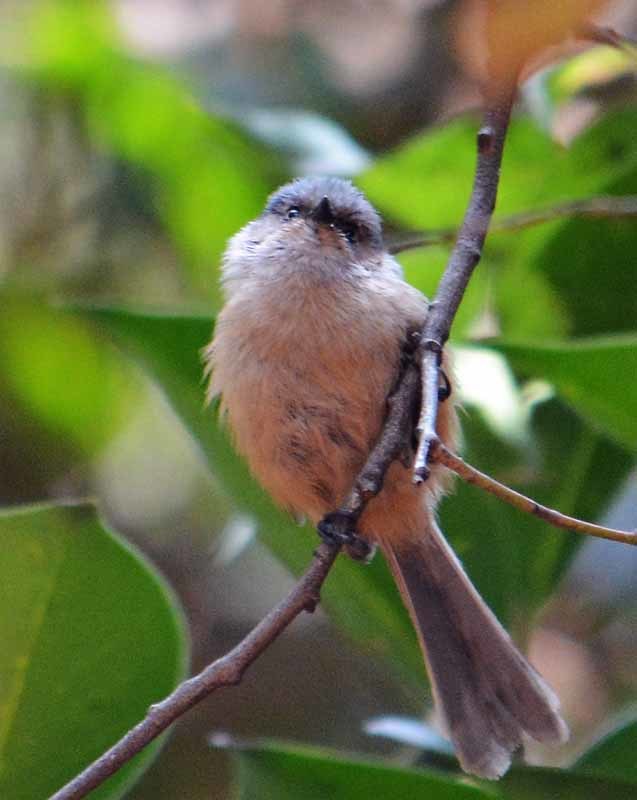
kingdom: Animalia
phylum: Chordata
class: Aves
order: Passeriformes
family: Aegithalidae
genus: Psaltriparus
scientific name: Psaltriparus minimus
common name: American bushtit
